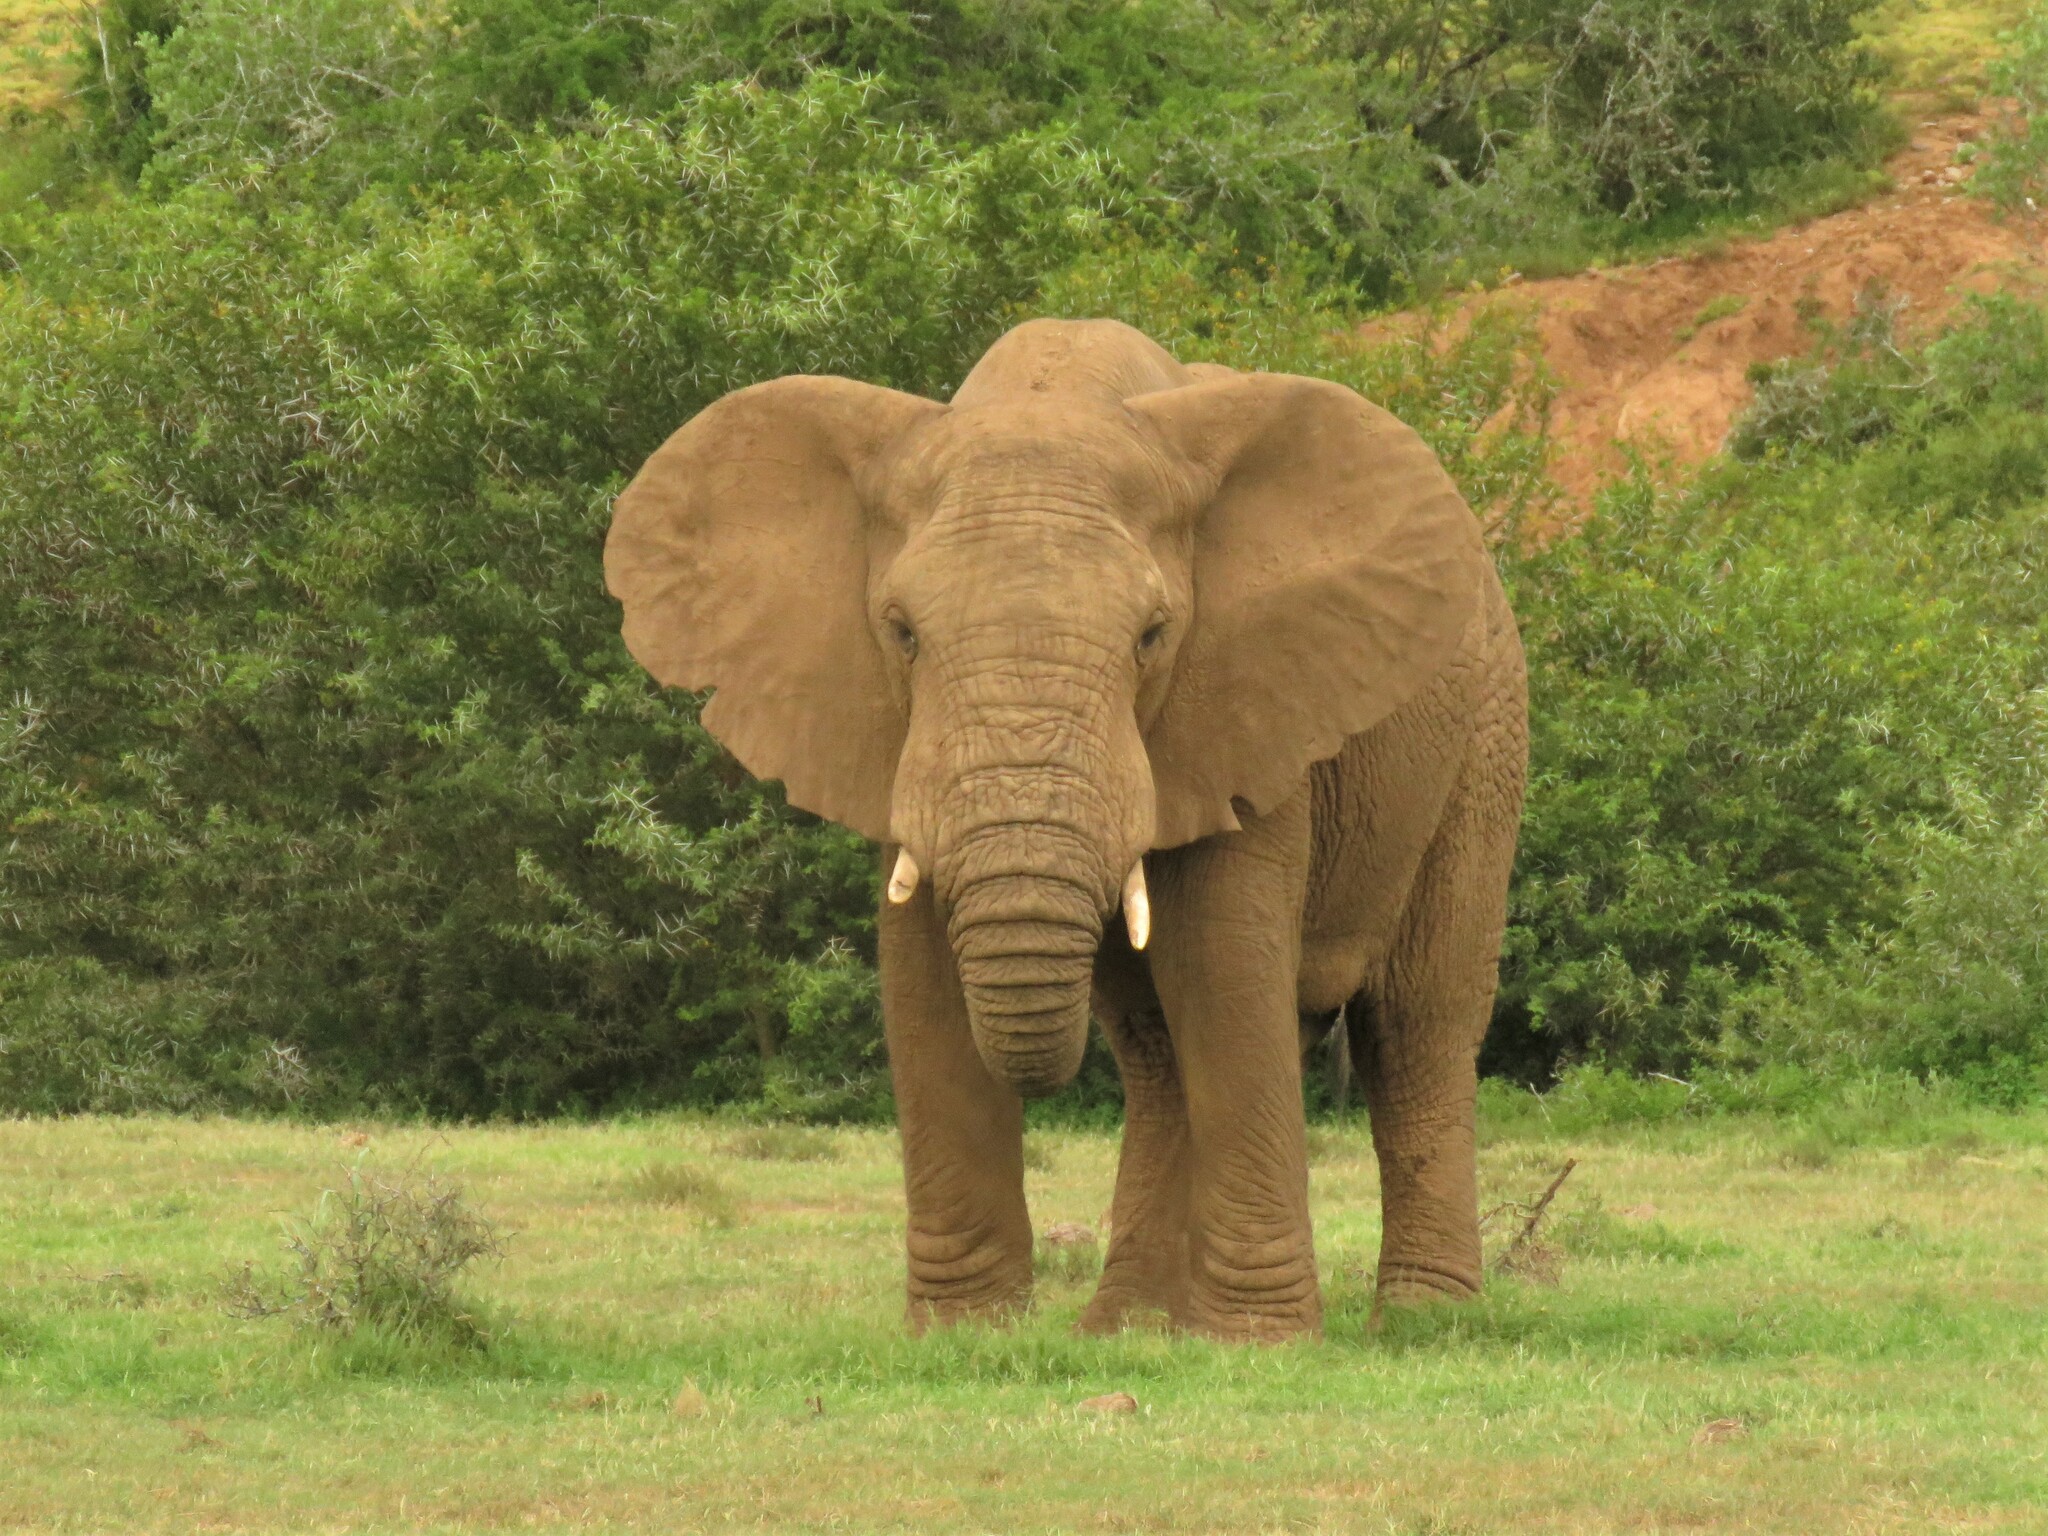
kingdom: Animalia
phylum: Chordata
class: Mammalia
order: Proboscidea
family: Elephantidae
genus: Loxodonta
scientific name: Loxodonta africana
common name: African elephant
